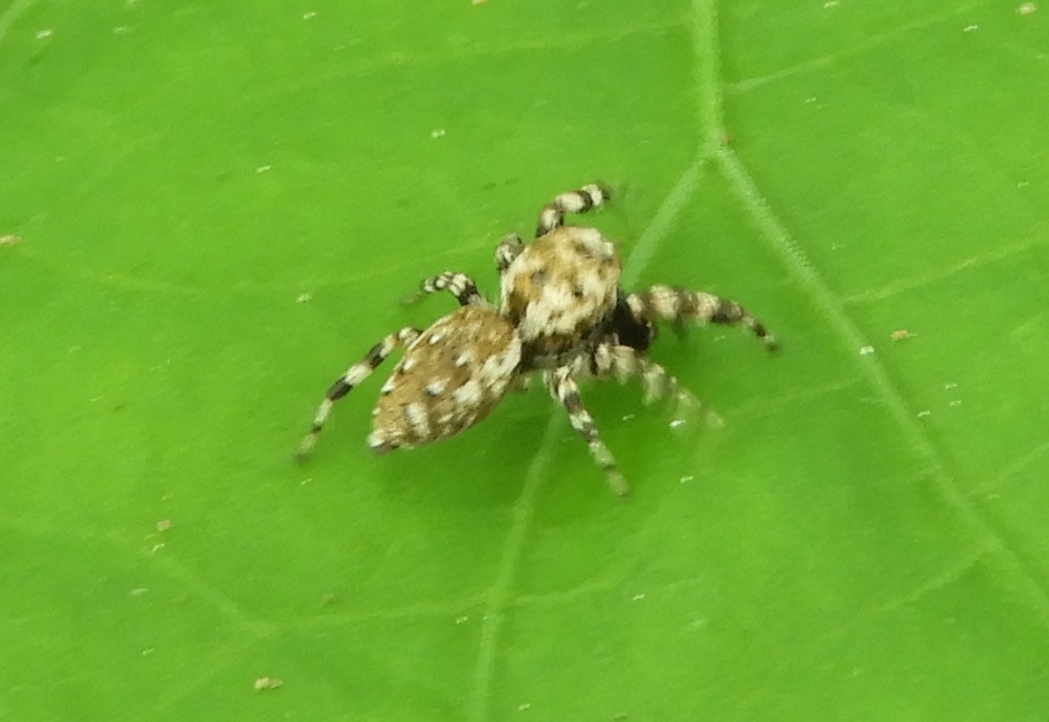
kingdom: Animalia
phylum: Arthropoda
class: Arachnida
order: Araneae
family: Salticidae
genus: Pelegrina
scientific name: Pelegrina
